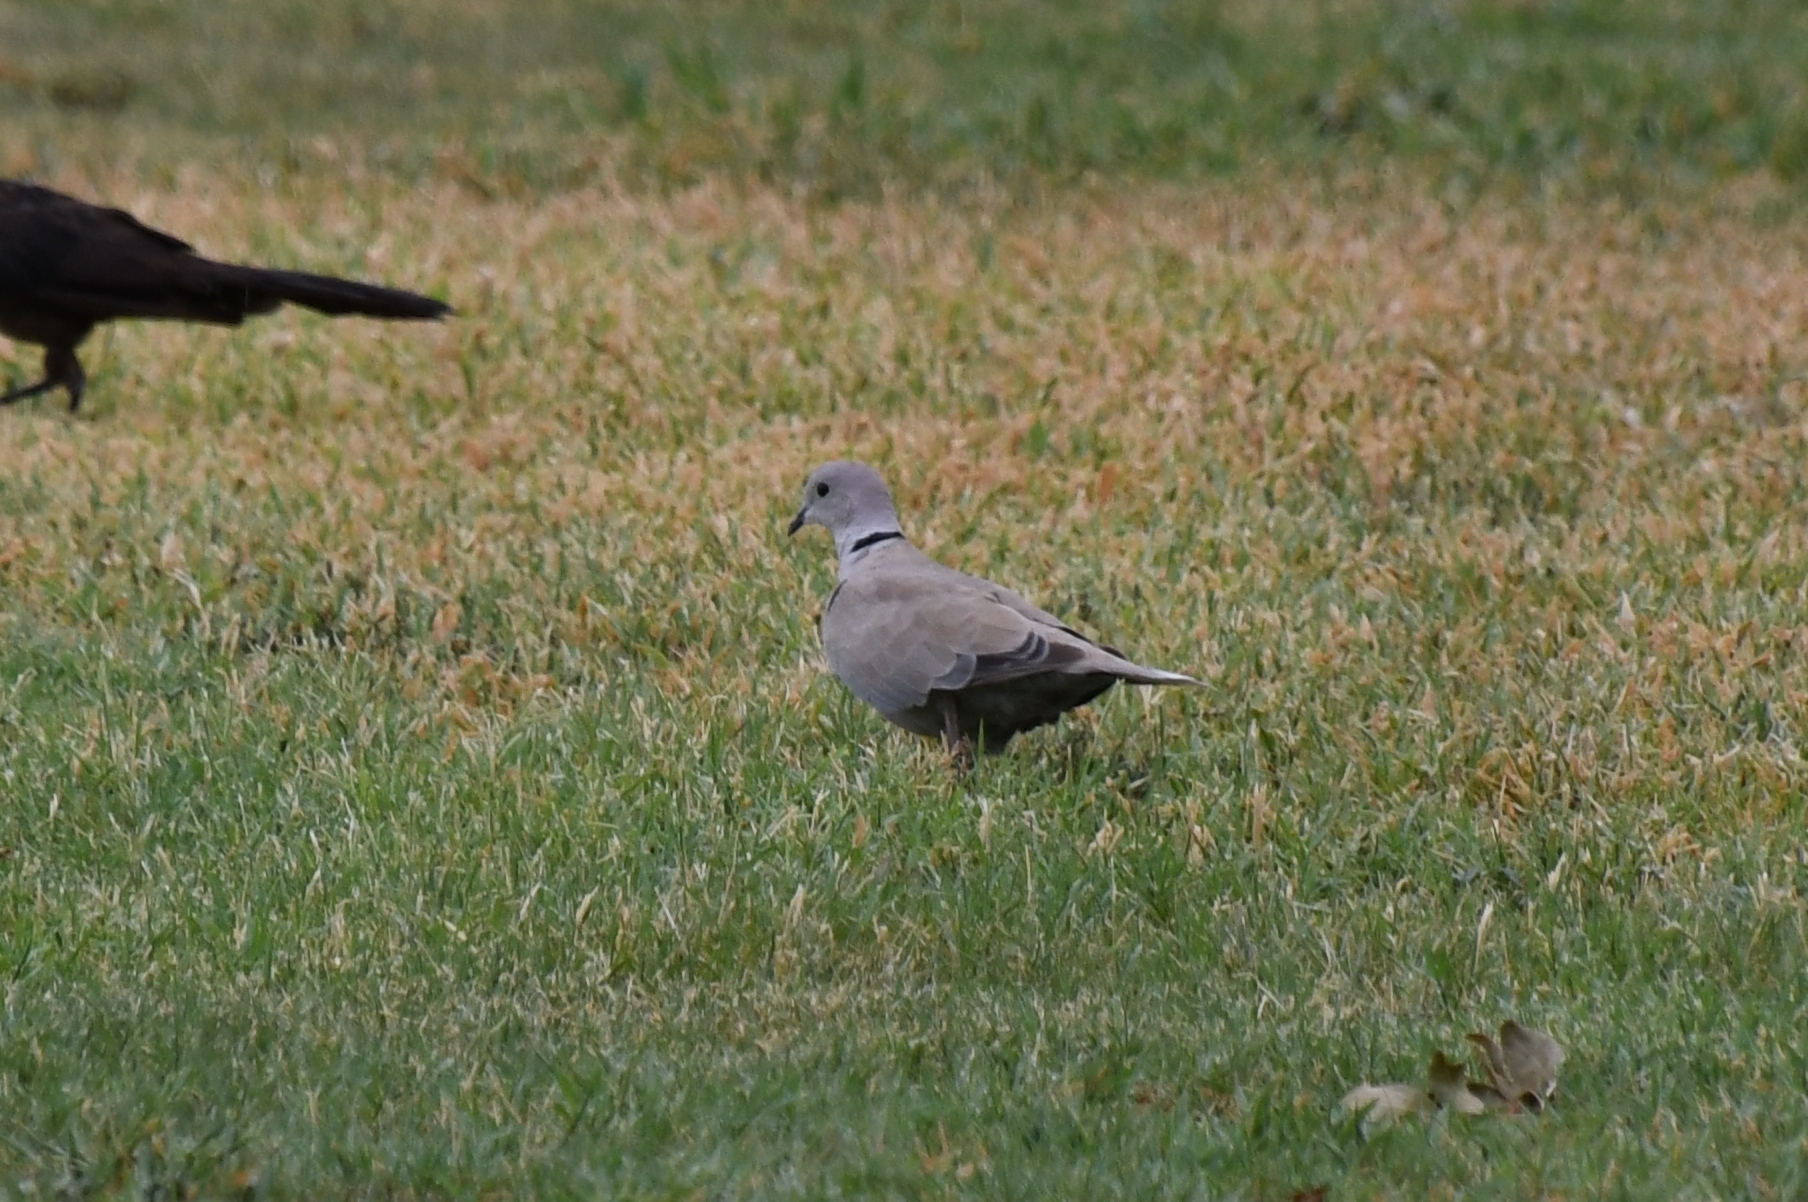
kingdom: Animalia
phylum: Chordata
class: Aves
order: Columbiformes
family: Columbidae
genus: Streptopelia
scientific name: Streptopelia decaocto
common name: Eurasian collared dove
